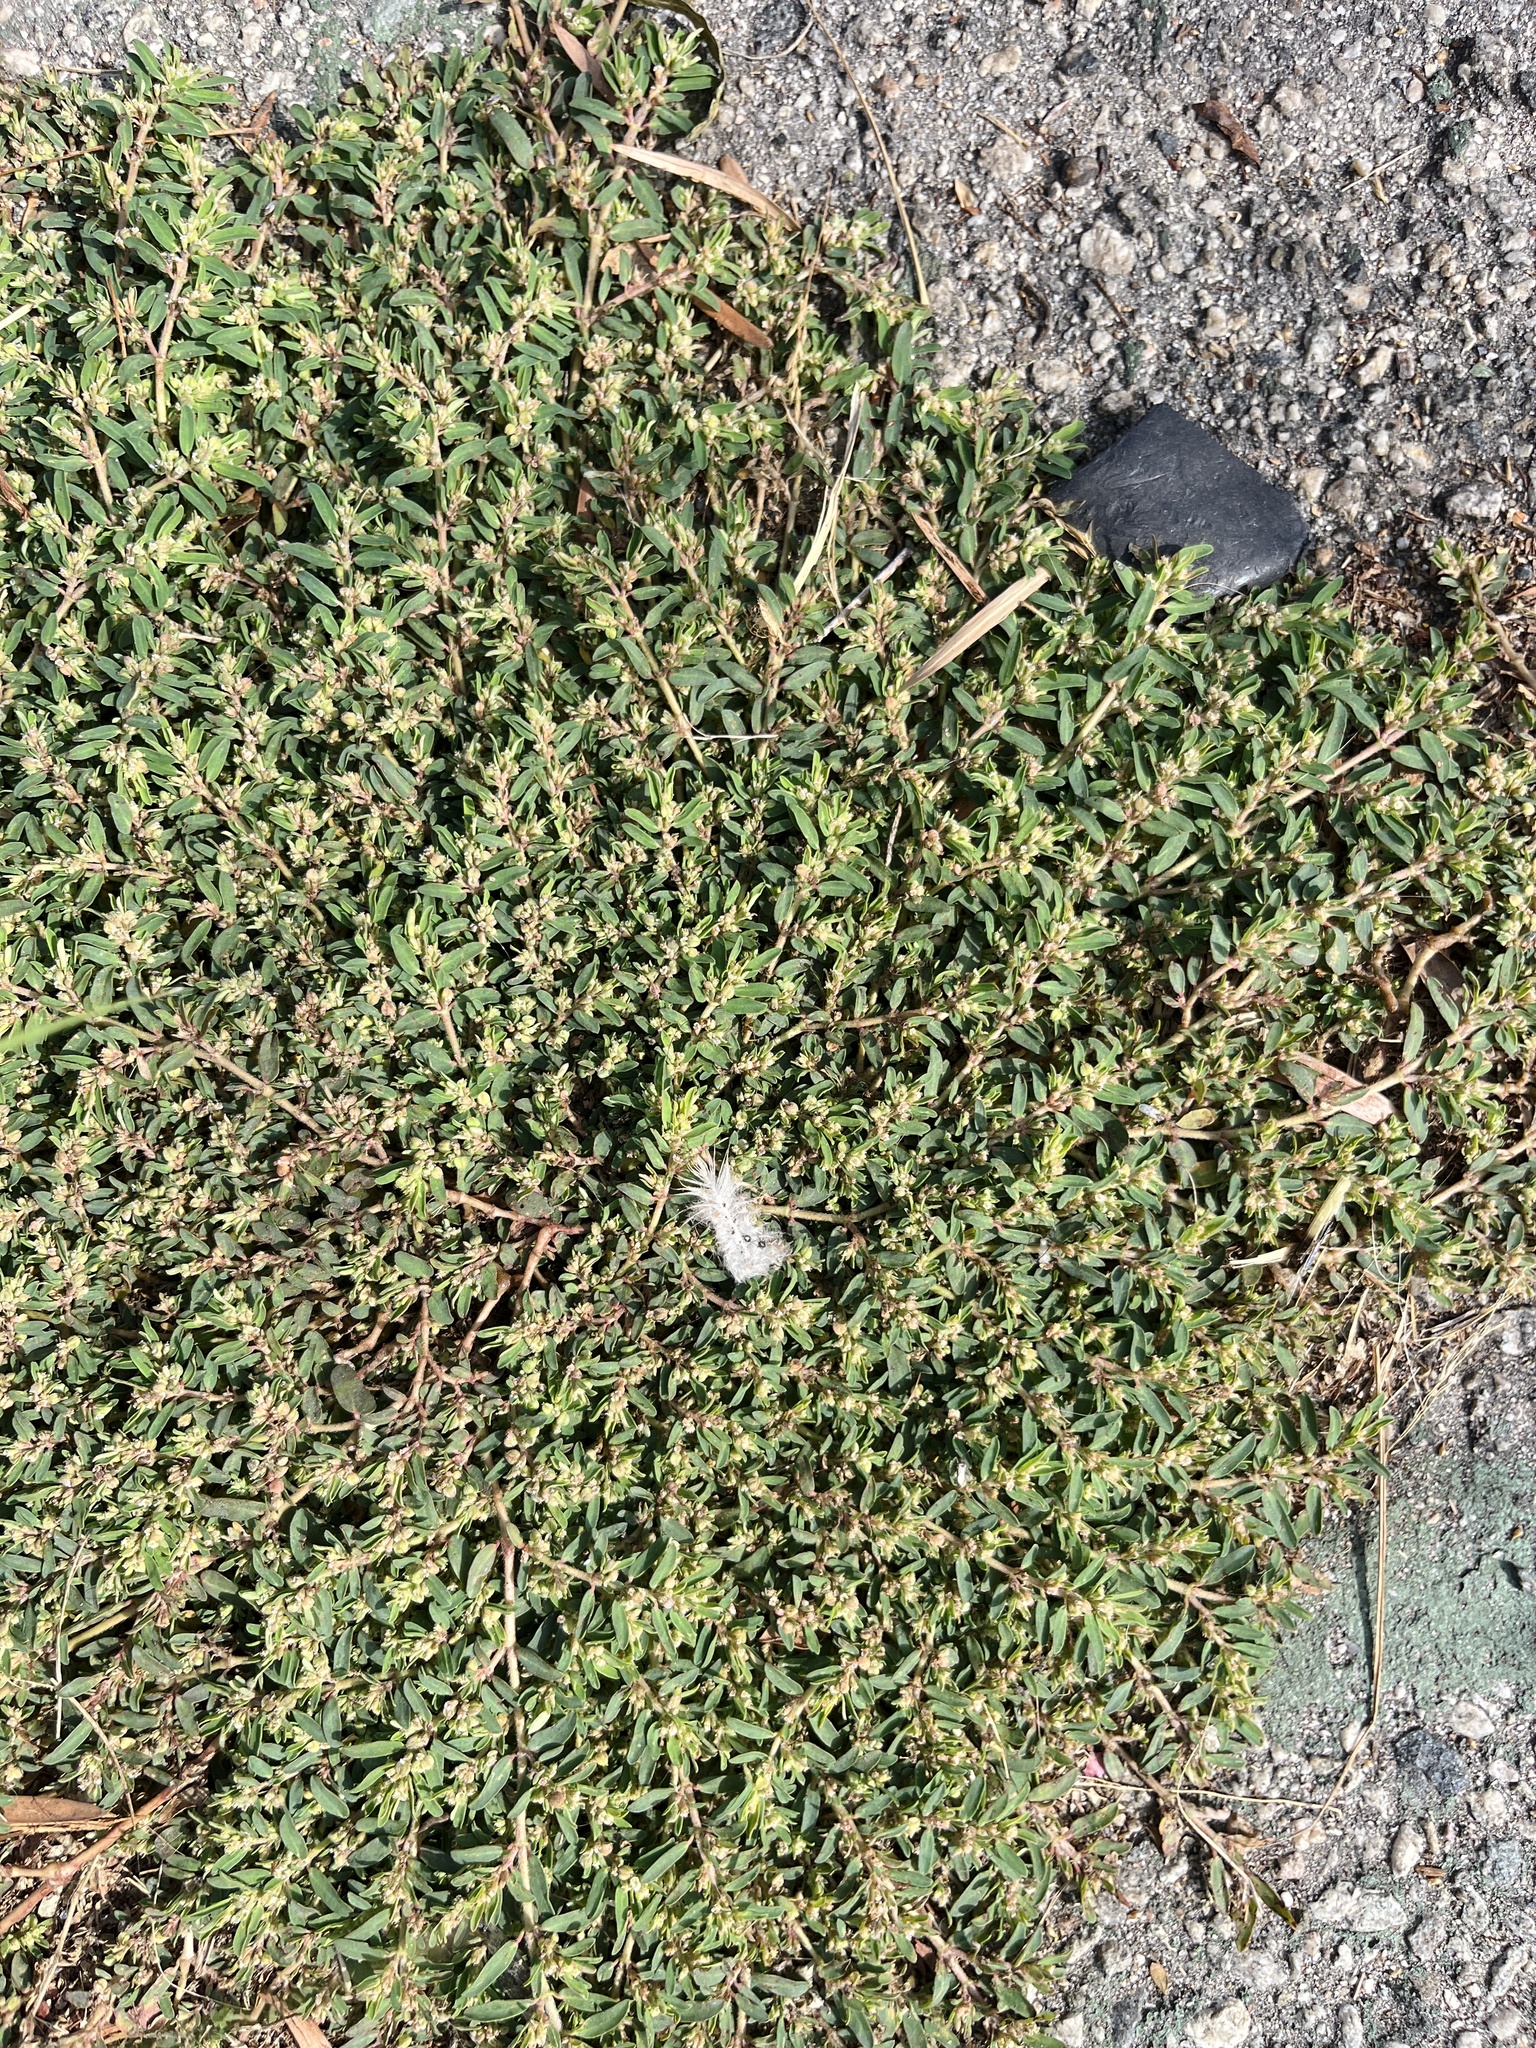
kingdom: Plantae
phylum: Tracheophyta
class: Magnoliopsida
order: Malpighiales
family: Euphorbiaceae
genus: Euphorbia
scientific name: Euphorbia maculata
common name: Spotted spurge
